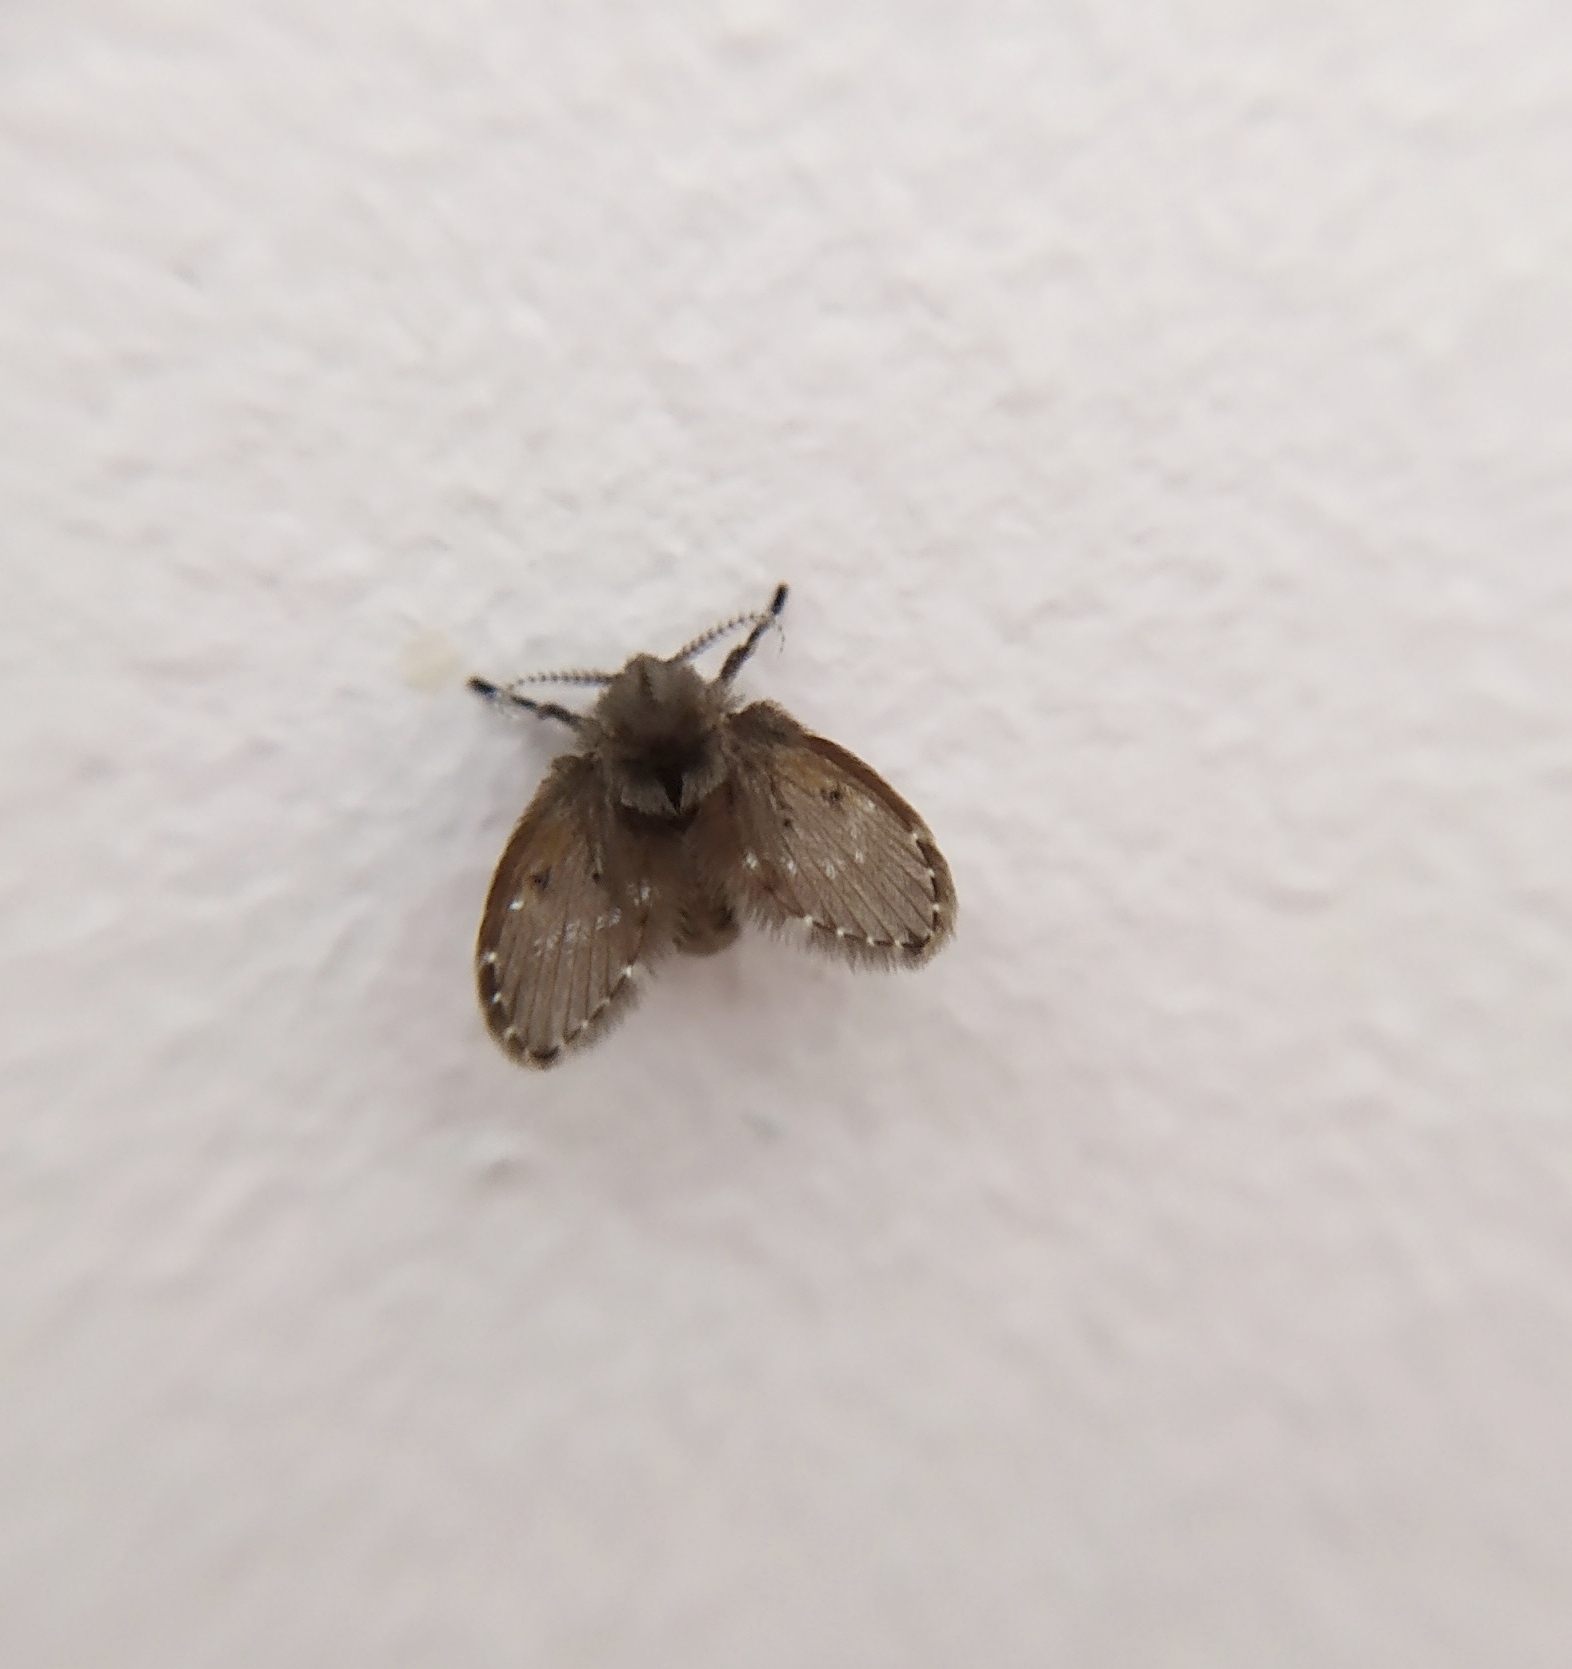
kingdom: Animalia
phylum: Arthropoda
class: Insecta
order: Diptera
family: Psychodidae
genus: Clogmia
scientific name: Clogmia albipunctatus
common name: White-spotted moth fly
